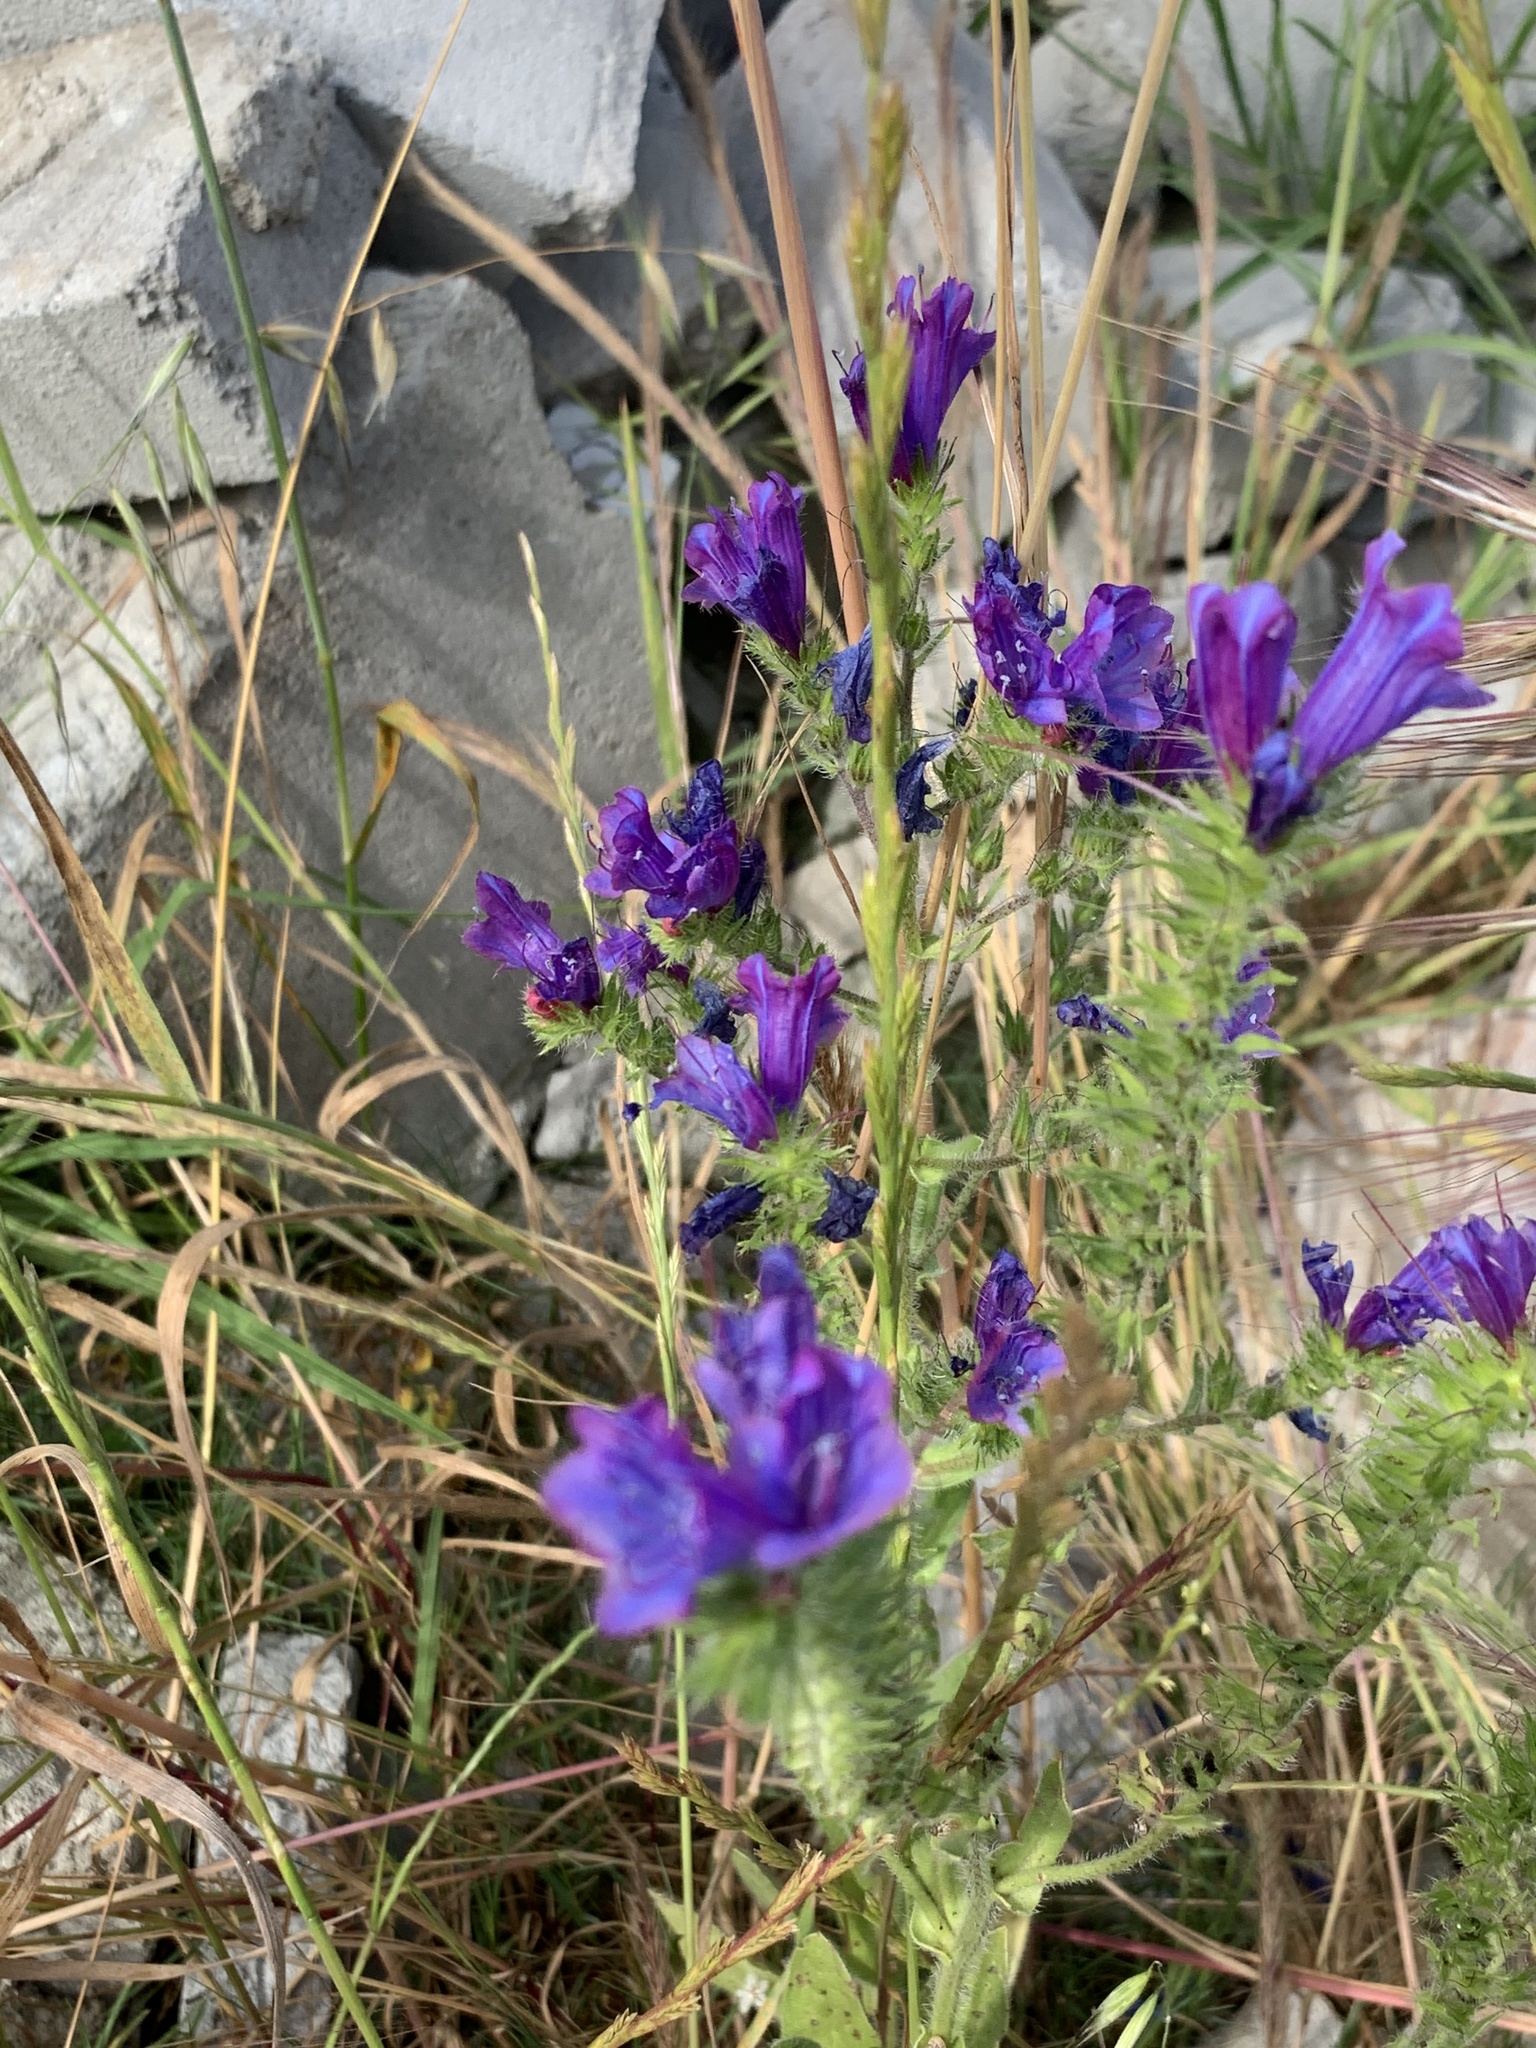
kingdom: Plantae
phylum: Tracheophyta
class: Magnoliopsida
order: Boraginales
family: Boraginaceae
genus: Echium
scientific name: Echium plantagineum
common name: Purple viper's-bugloss
